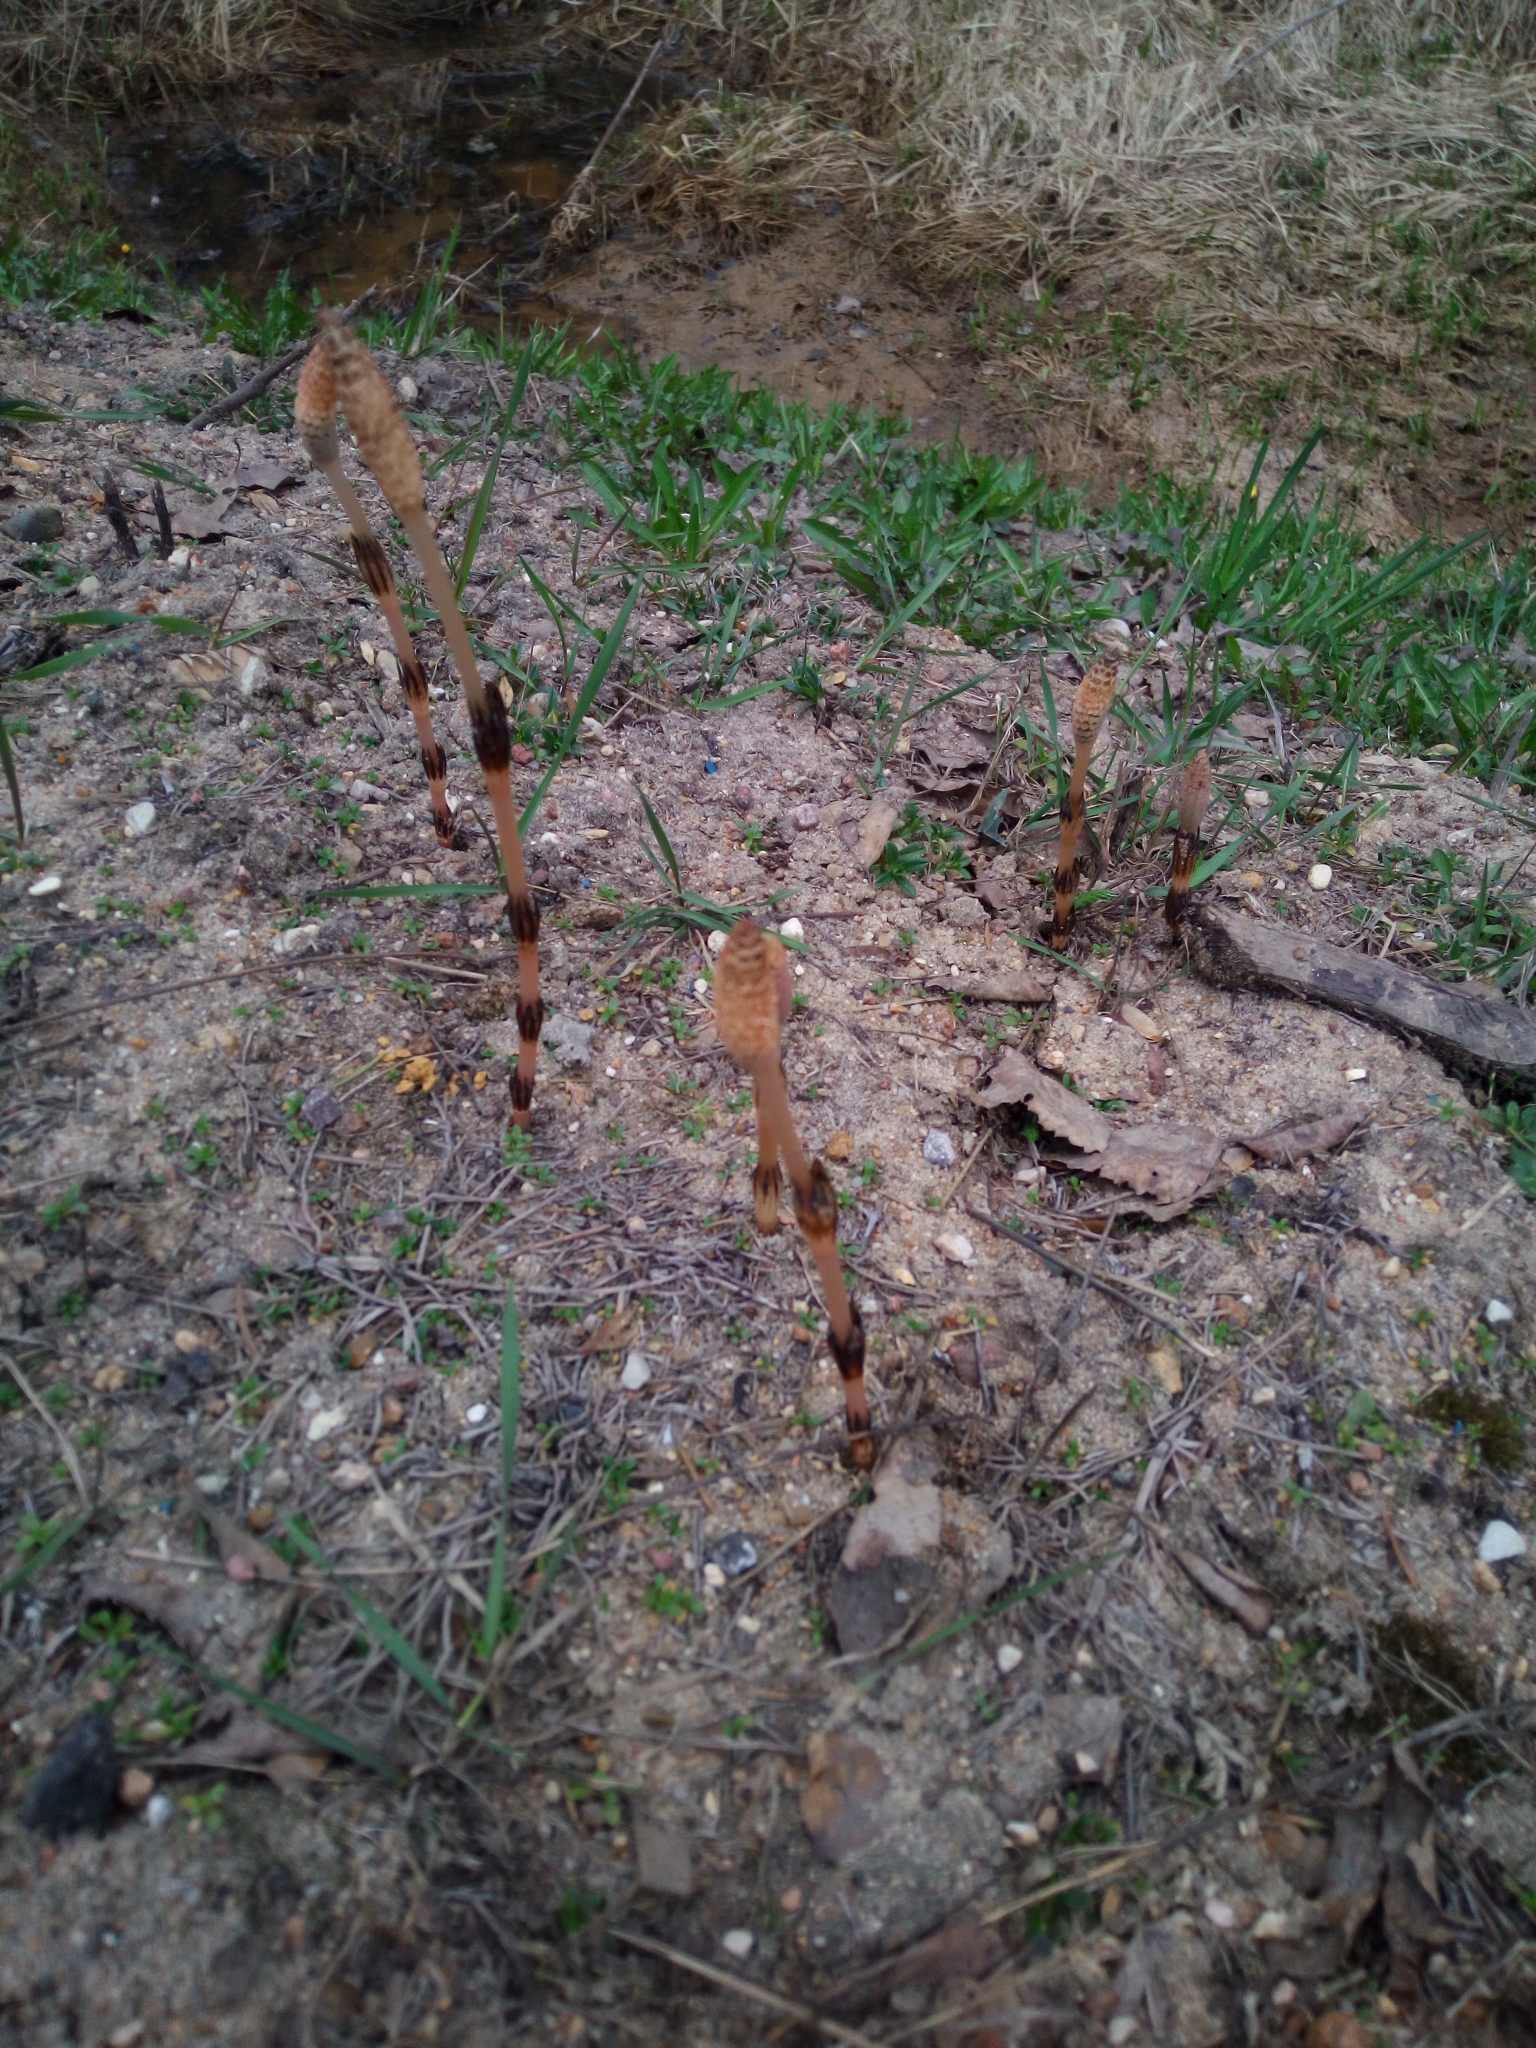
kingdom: Plantae
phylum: Tracheophyta
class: Polypodiopsida
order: Equisetales
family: Equisetaceae
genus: Equisetum
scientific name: Equisetum arvense
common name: Field horsetail
